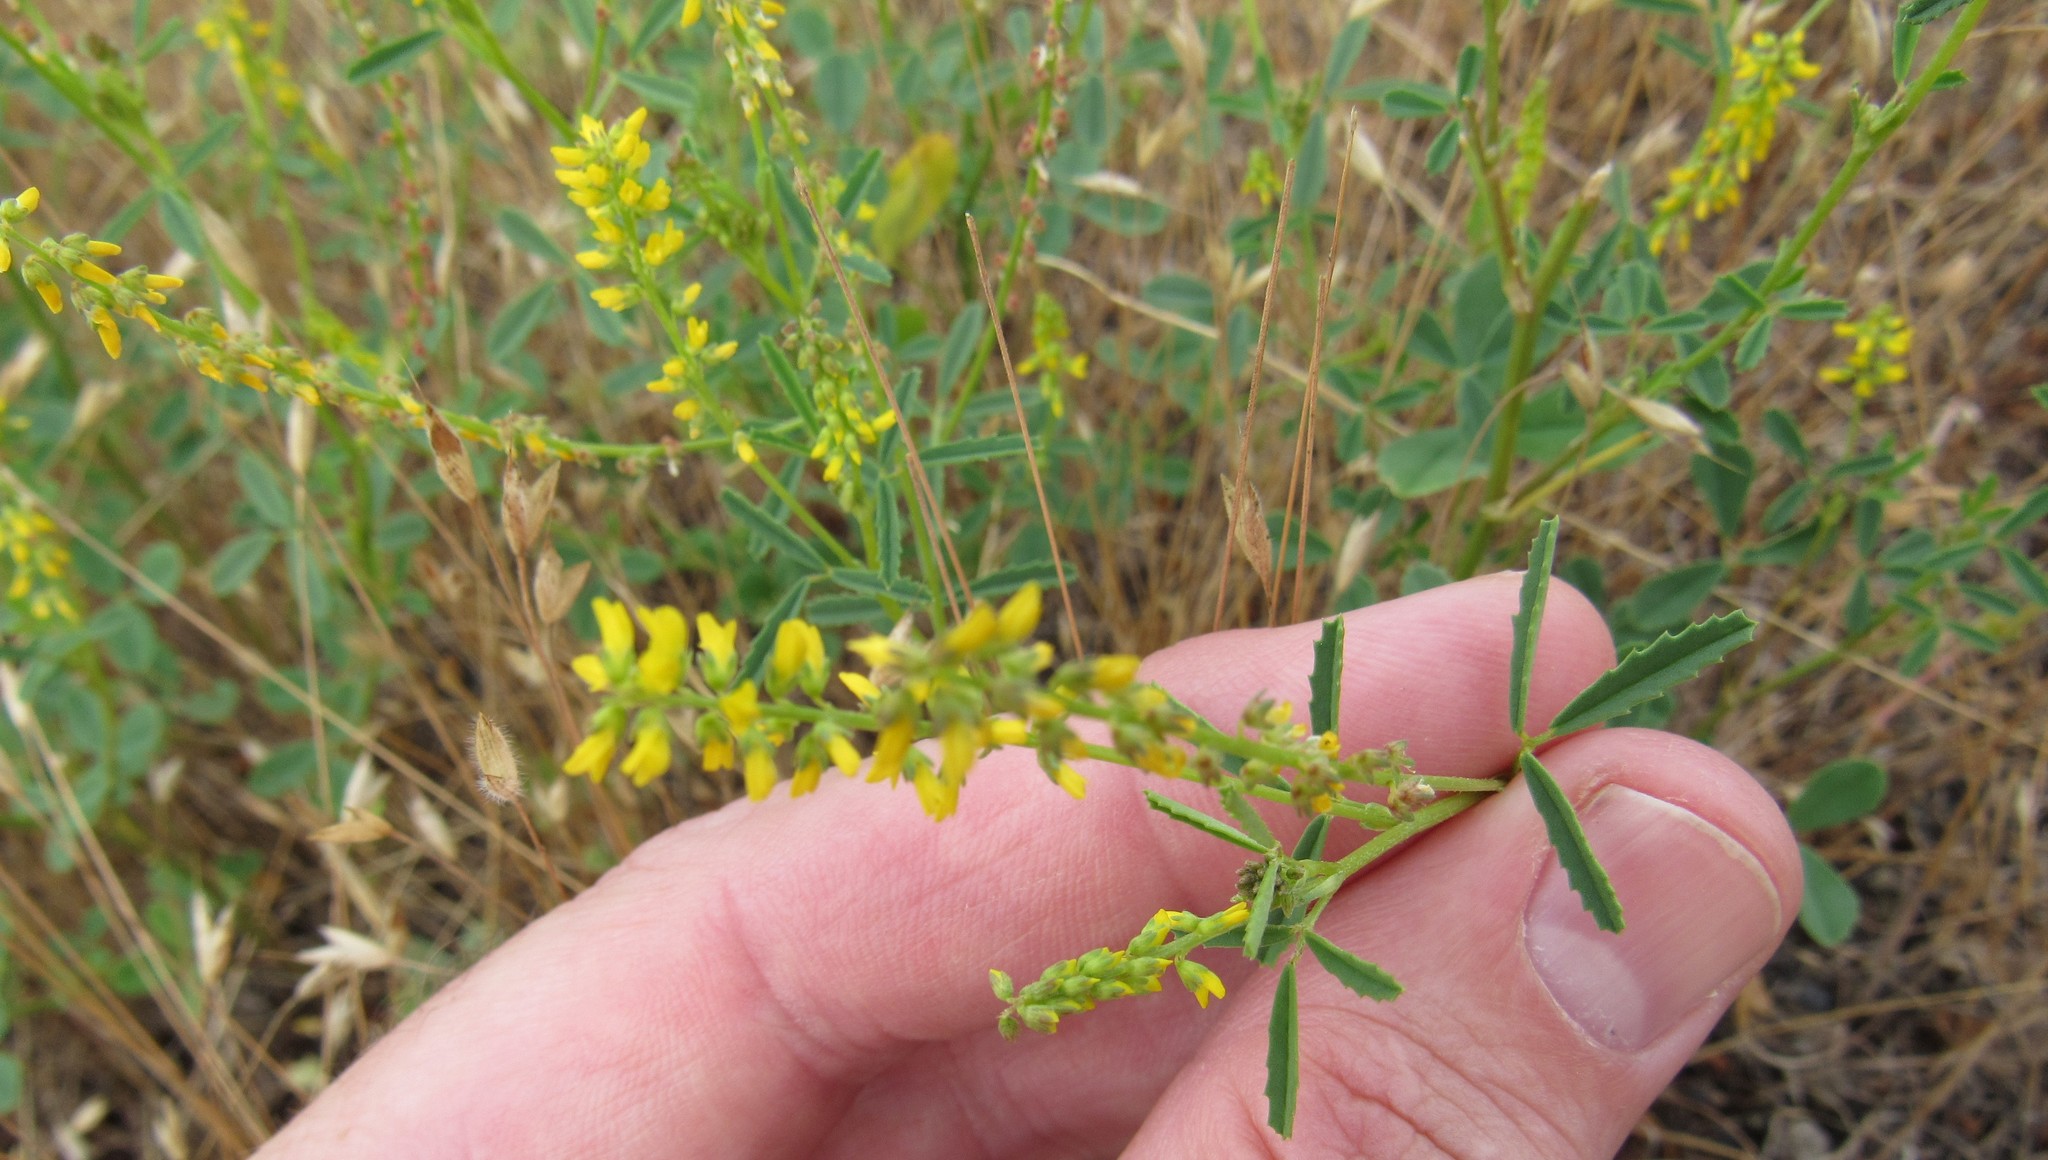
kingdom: Plantae
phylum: Tracheophyta
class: Magnoliopsida
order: Fabales
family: Fabaceae
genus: Melilotus
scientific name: Melilotus indicus
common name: Small melilot
